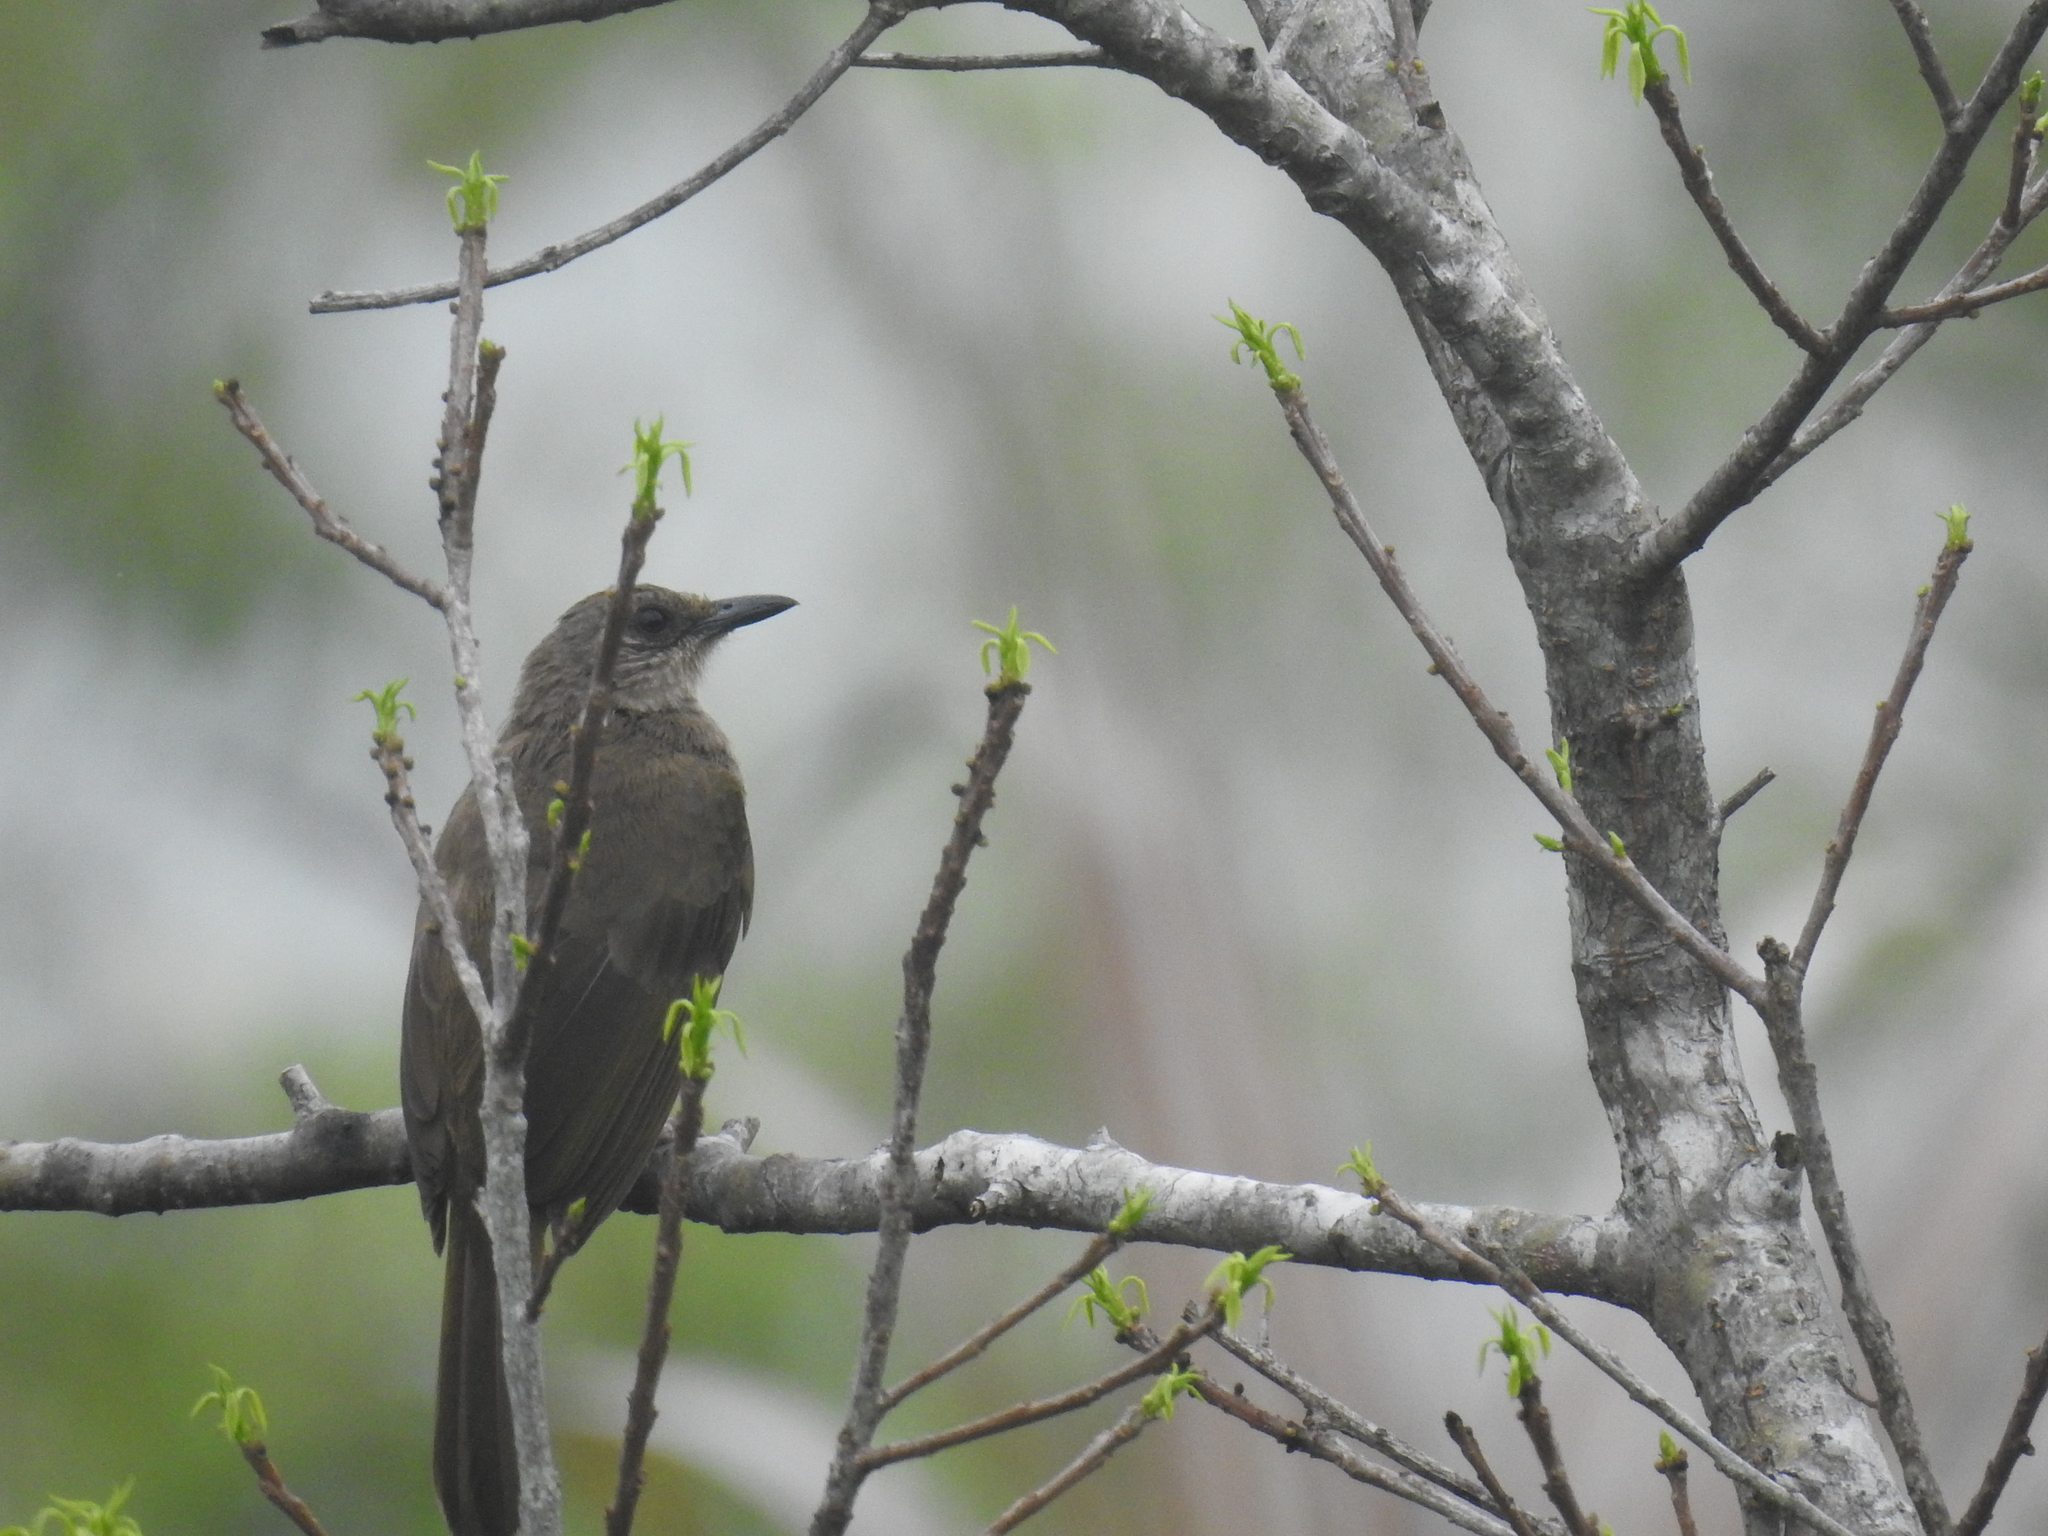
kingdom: Animalia
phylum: Chordata
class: Aves
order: Passeriformes
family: Pycnonotidae
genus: Pycnonotus
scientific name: Pycnonotus plumosus
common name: Olive-winged bulbul
